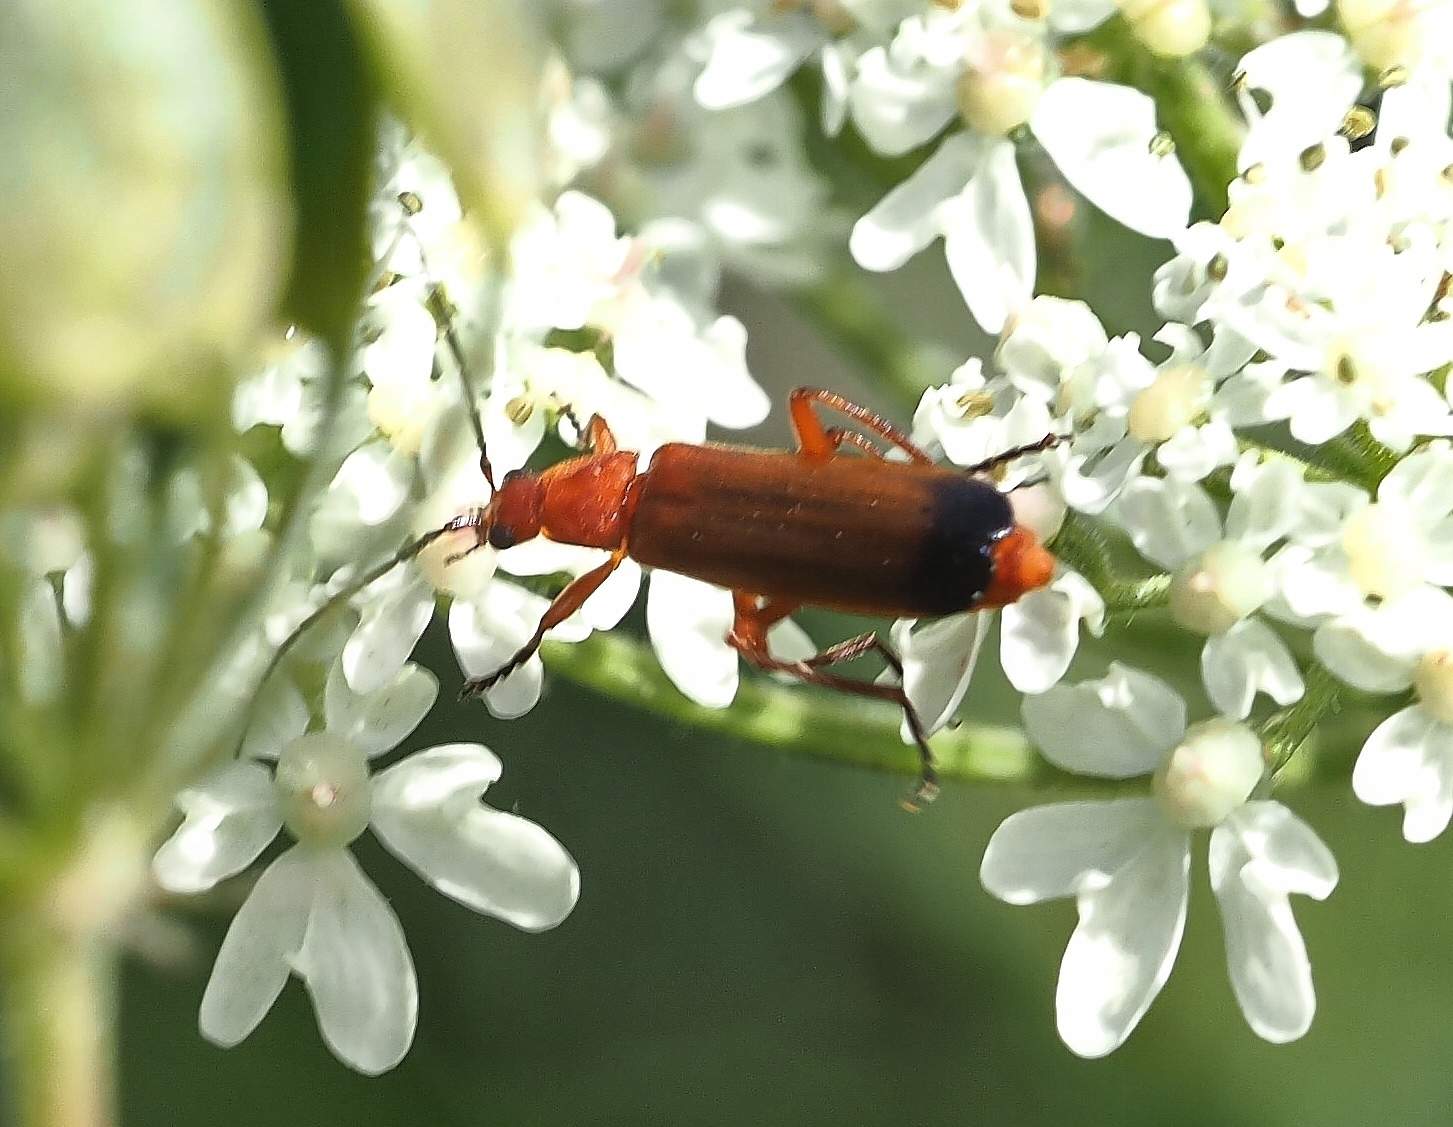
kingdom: Animalia
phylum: Arthropoda
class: Insecta
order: Coleoptera
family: Cantharidae
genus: Rhagonycha
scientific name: Rhagonycha fulva
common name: Common red soldier beetle
